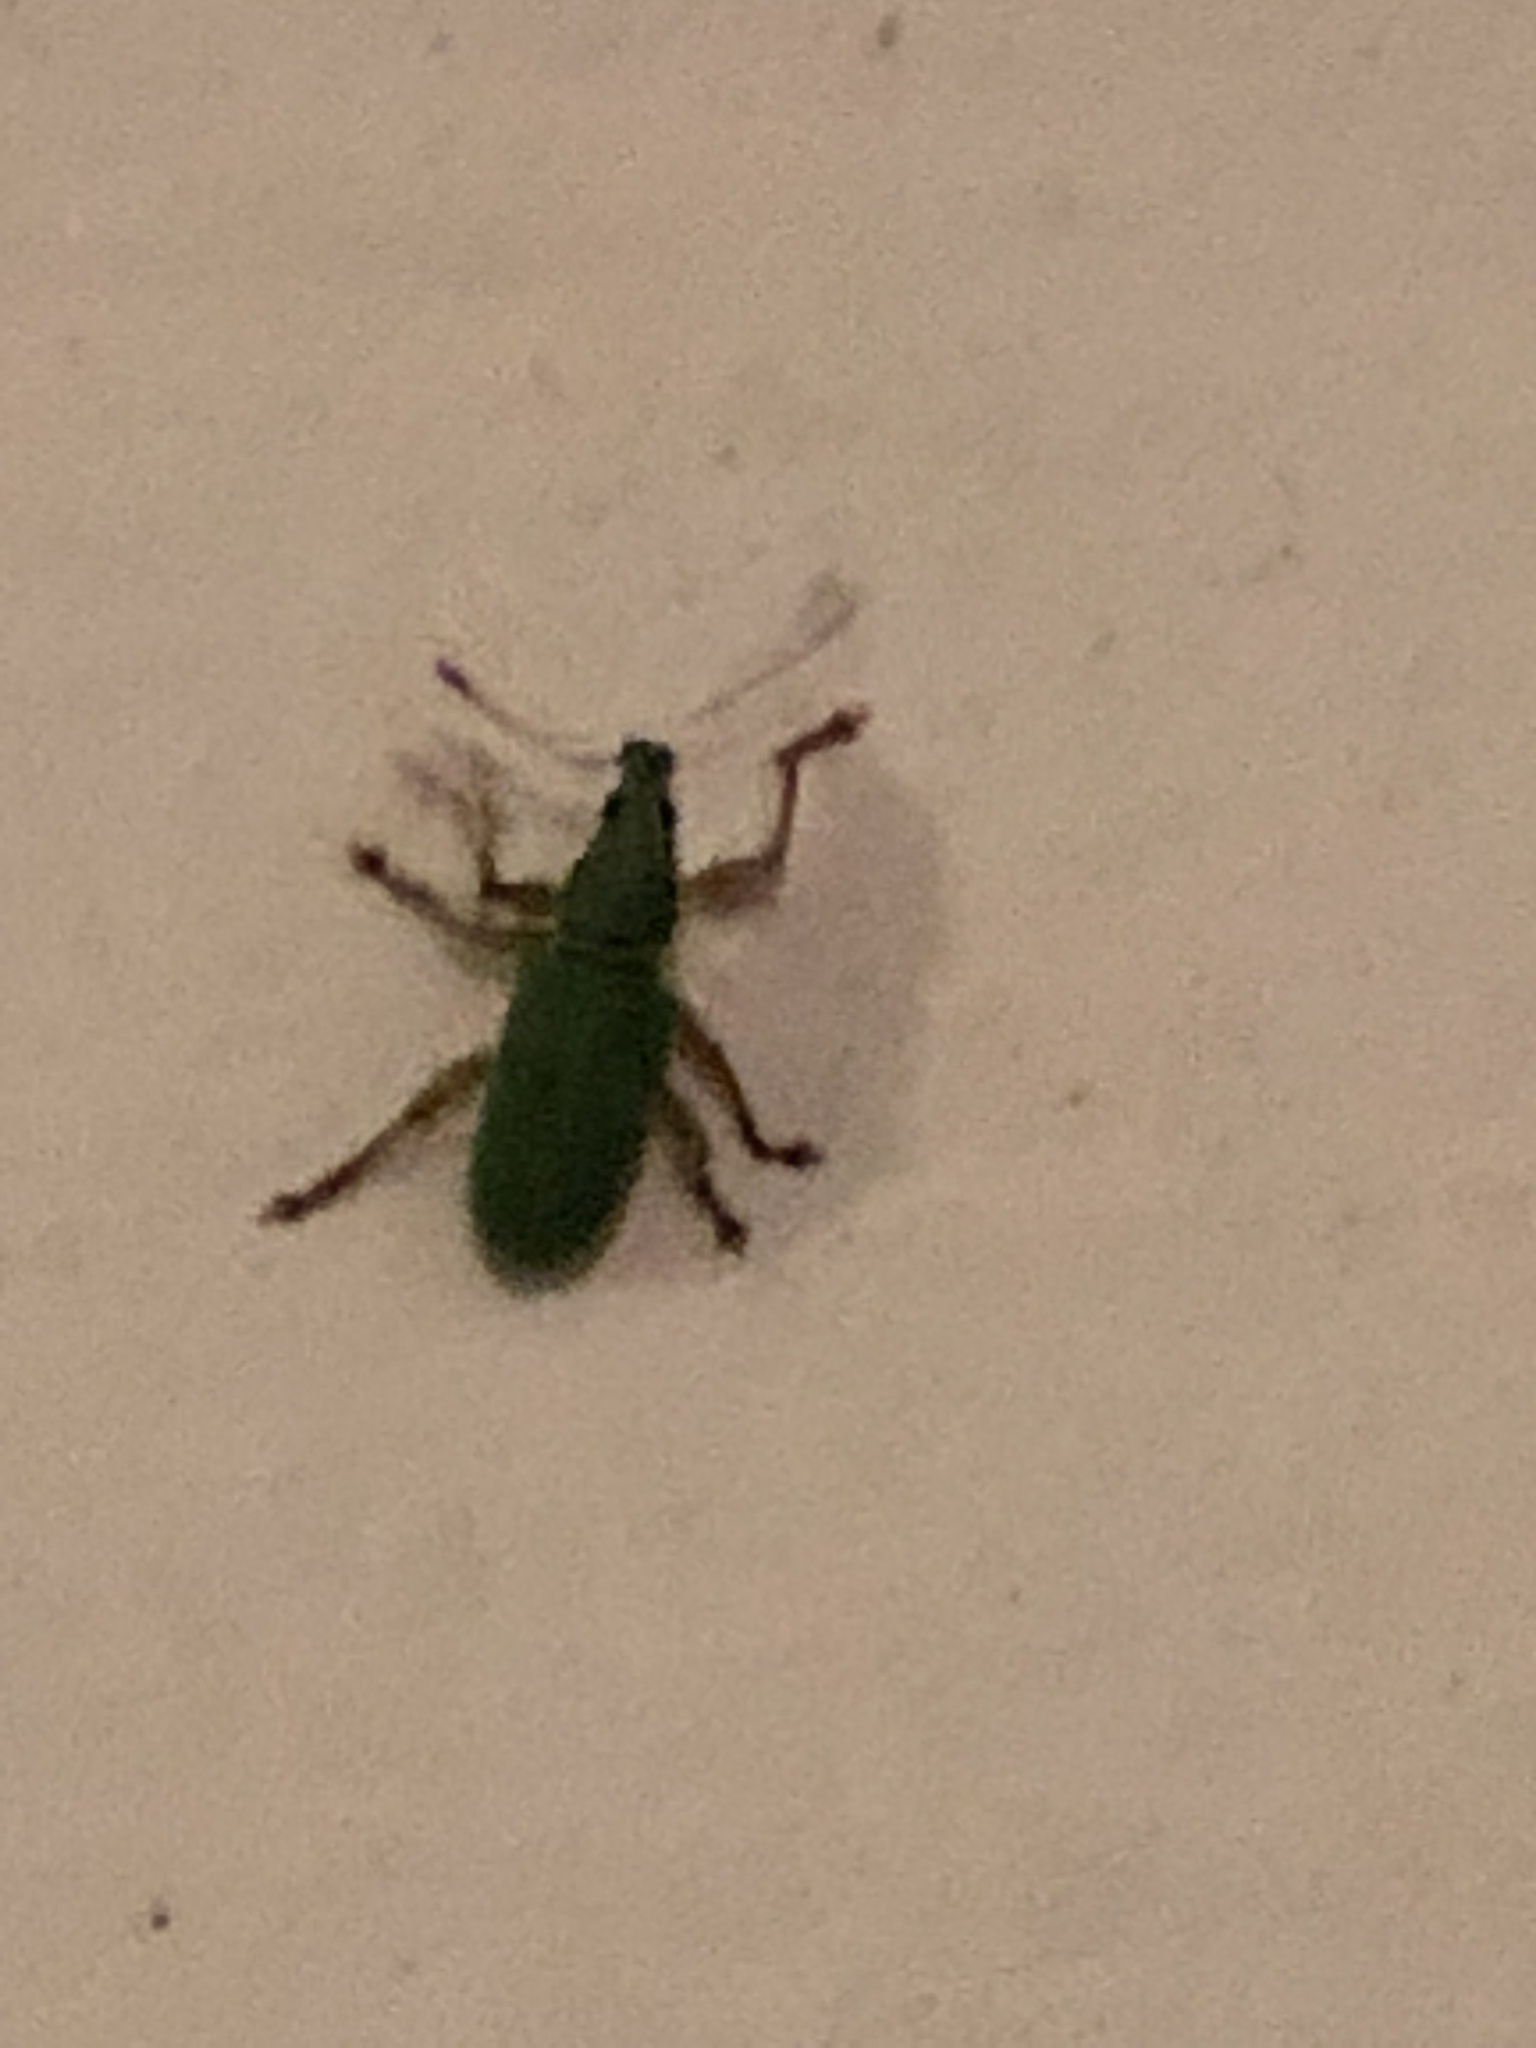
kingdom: Animalia
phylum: Arthropoda
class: Insecta
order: Coleoptera
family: Curculionidae
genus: Polydrusus
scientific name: Polydrusus formosus
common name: Weevil
